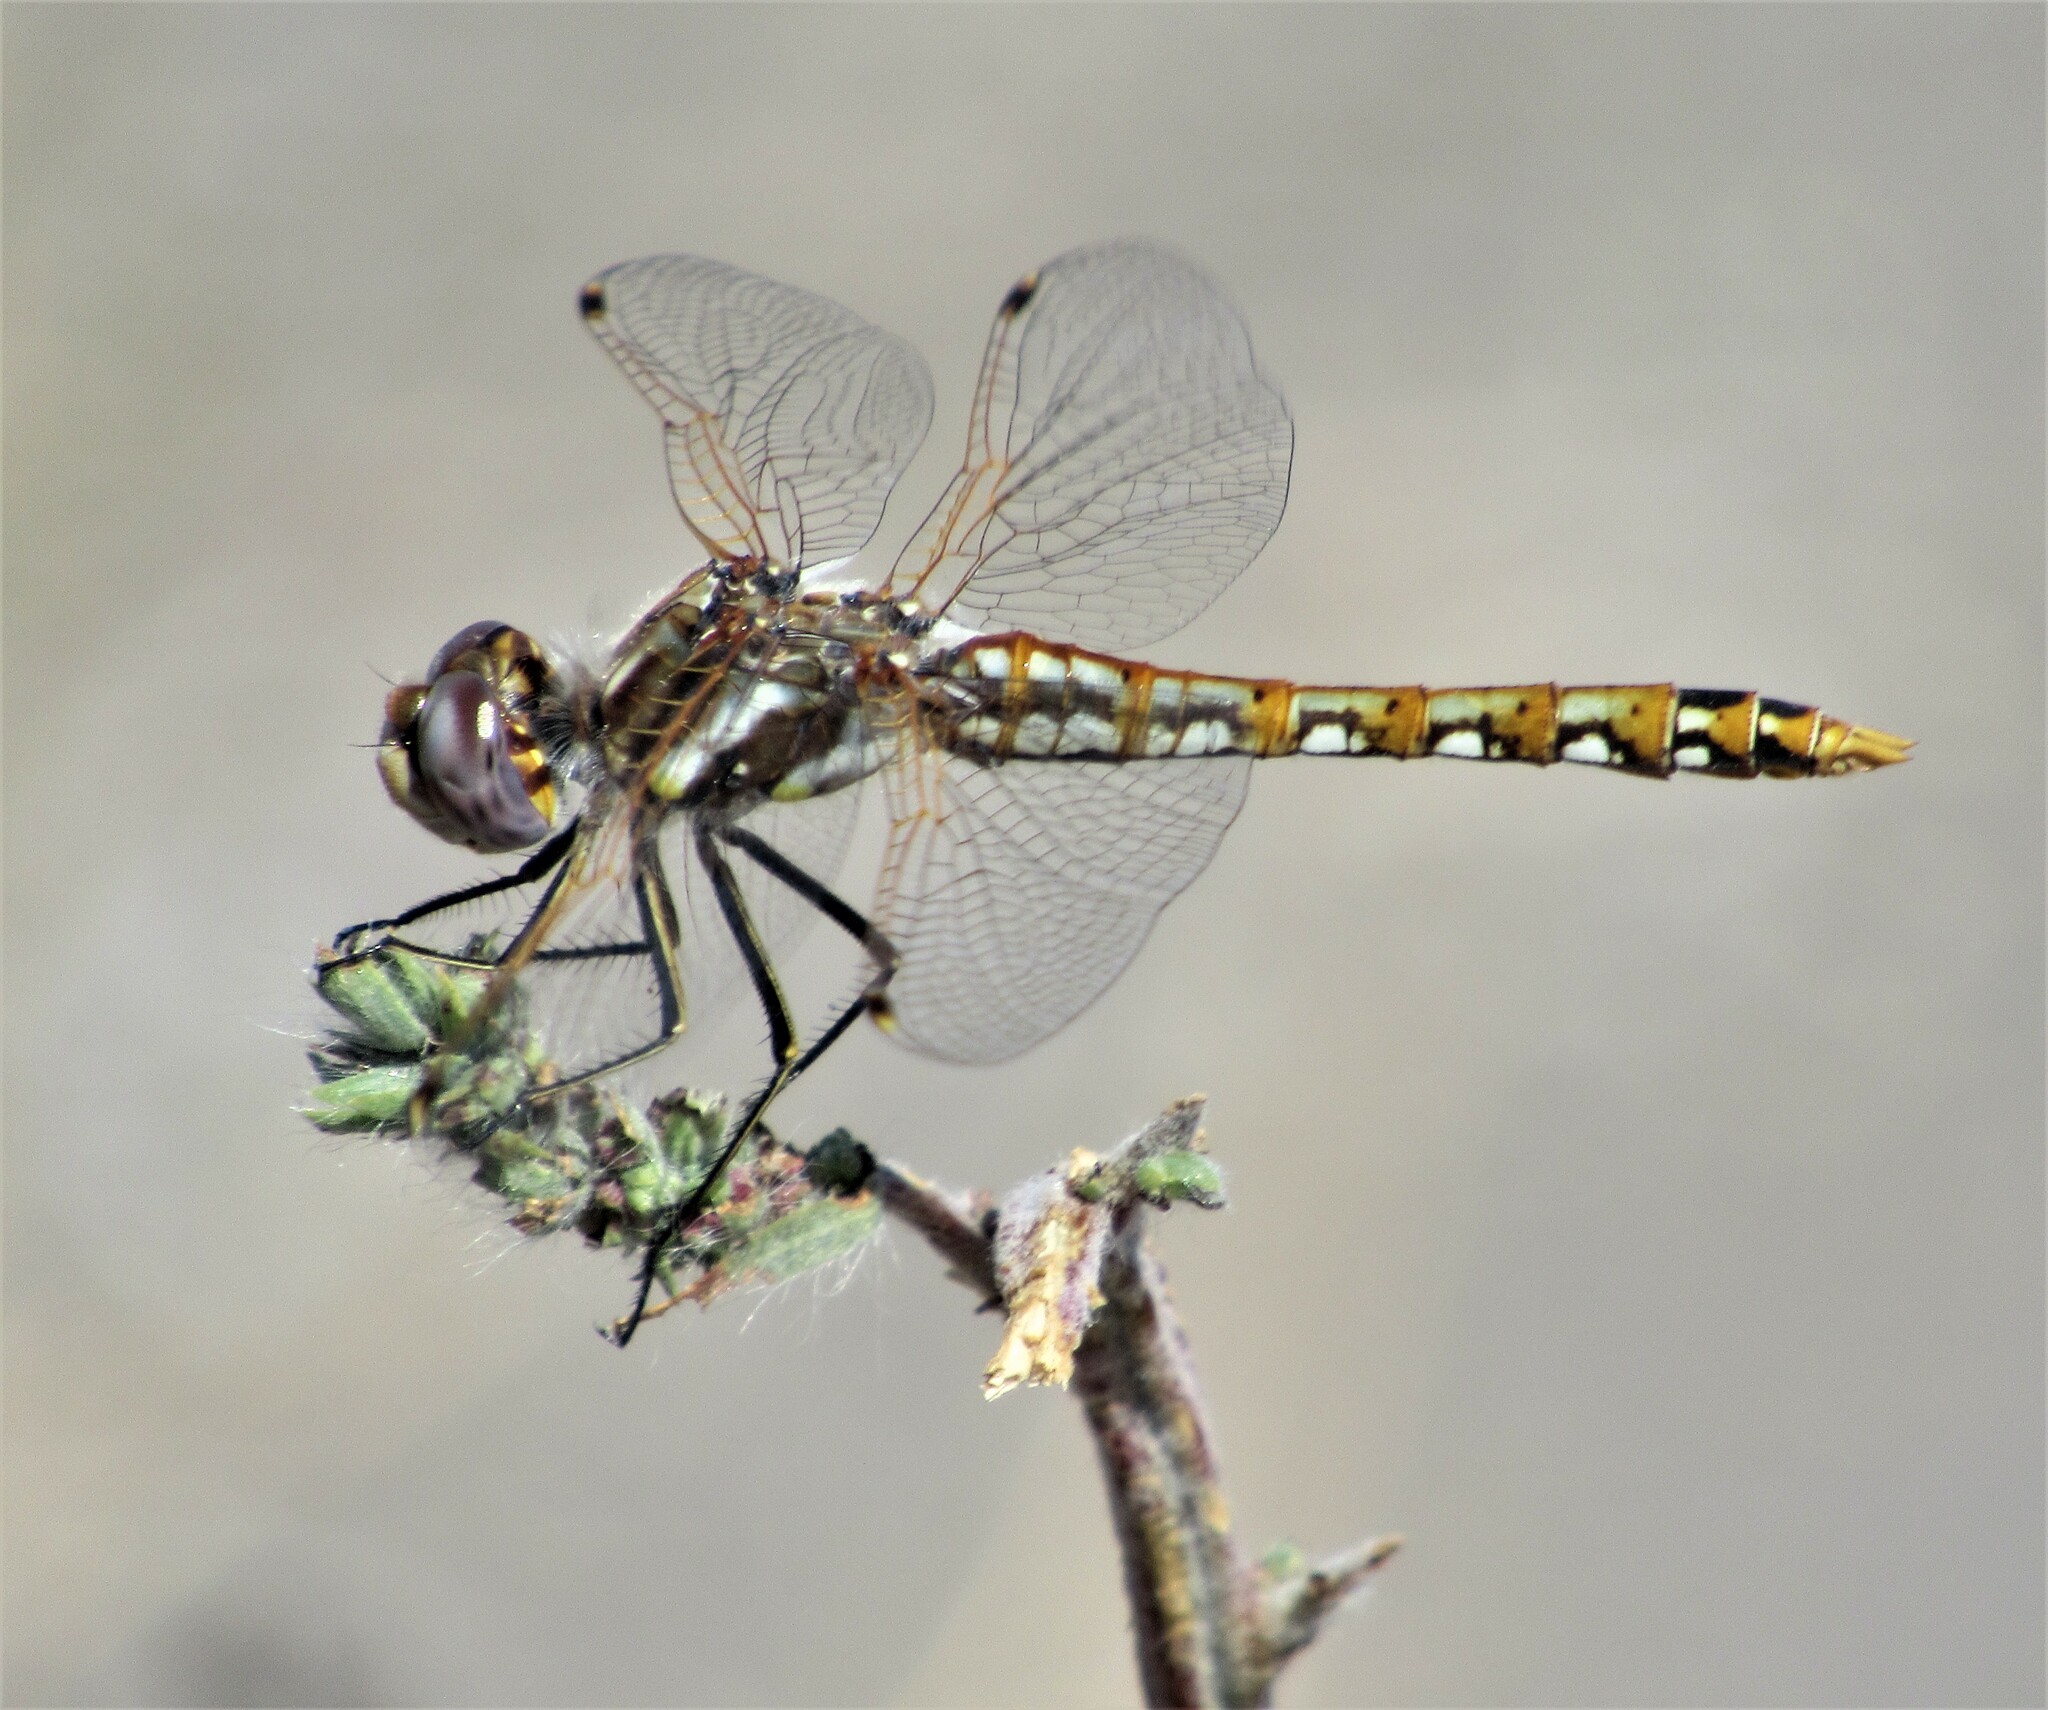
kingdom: Animalia
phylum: Arthropoda
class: Insecta
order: Odonata
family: Libellulidae
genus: Sympetrum
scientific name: Sympetrum corruptum
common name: Variegated meadowhawk
